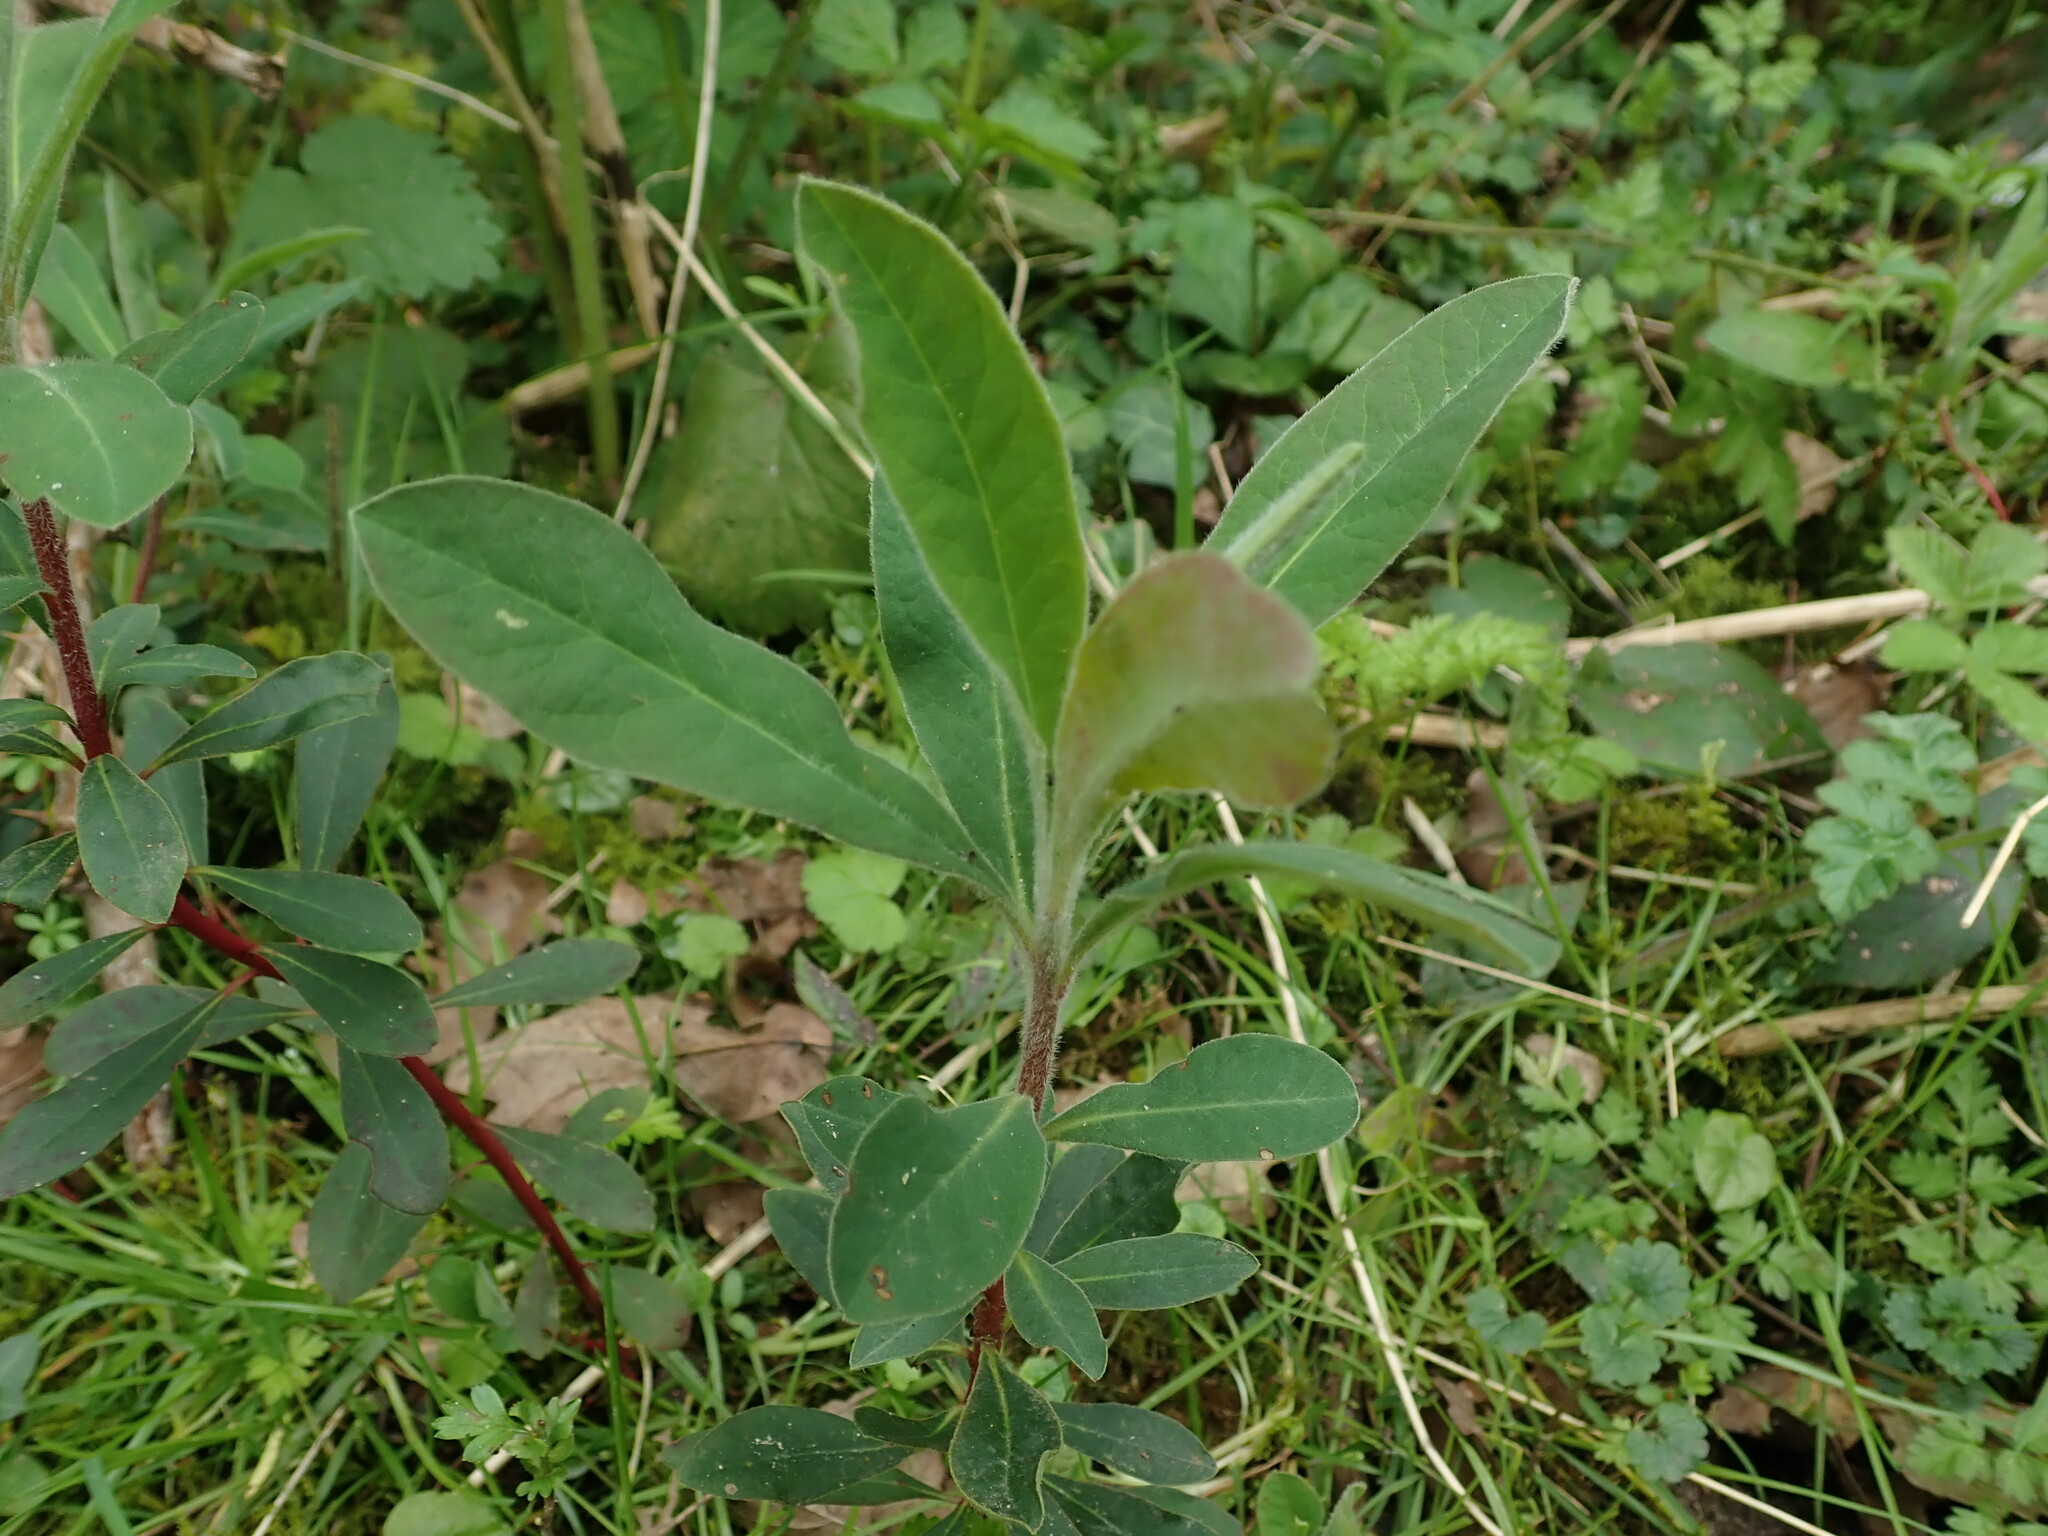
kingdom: Plantae
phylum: Tracheophyta
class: Magnoliopsida
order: Malpighiales
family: Euphorbiaceae
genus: Euphorbia
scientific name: Euphorbia amygdaloides
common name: Wood spurge
